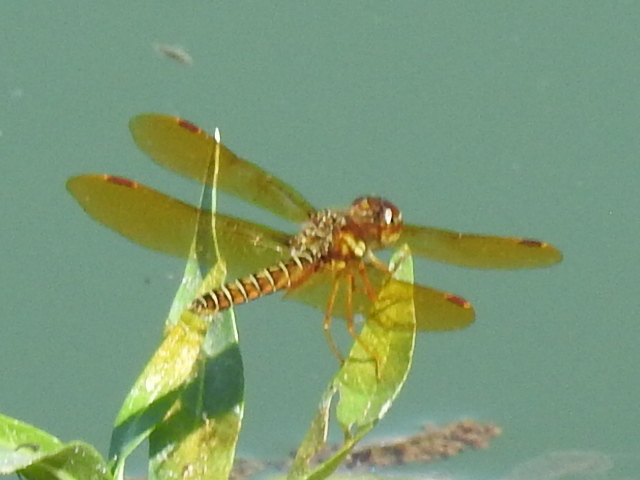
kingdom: Animalia
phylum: Arthropoda
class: Insecta
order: Odonata
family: Libellulidae
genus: Perithemis
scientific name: Perithemis tenera
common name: Eastern amberwing
